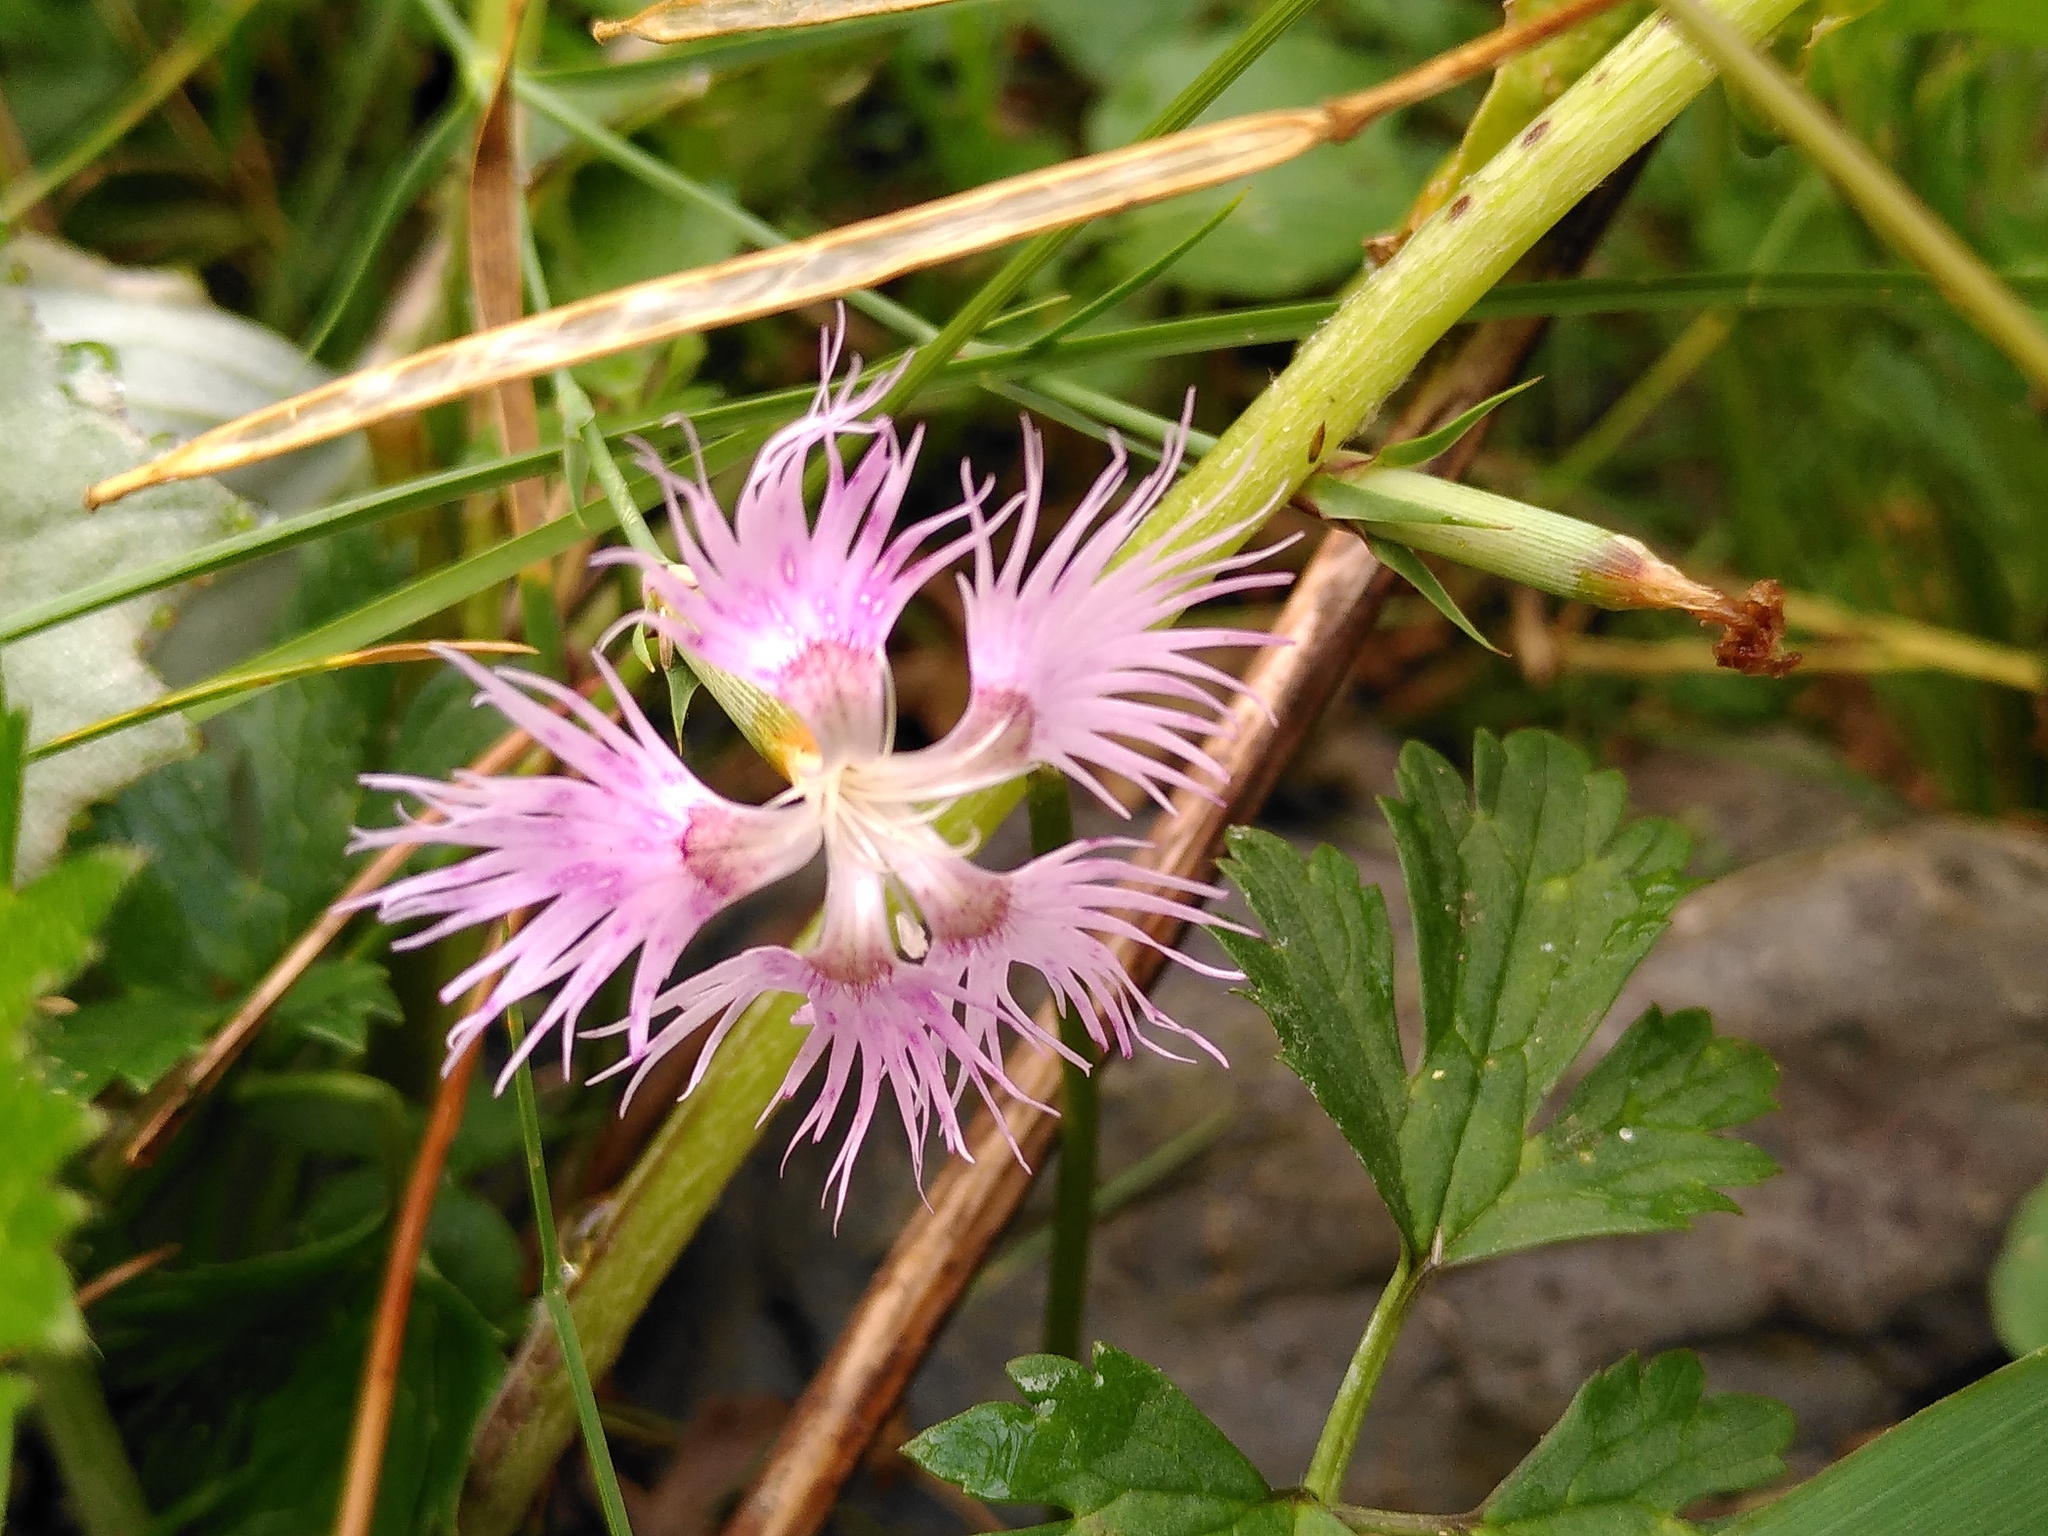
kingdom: Plantae
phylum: Tracheophyta
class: Magnoliopsida
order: Caryophyllales
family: Caryophyllaceae
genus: Dianthus
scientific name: Dianthus hyssopifolius
